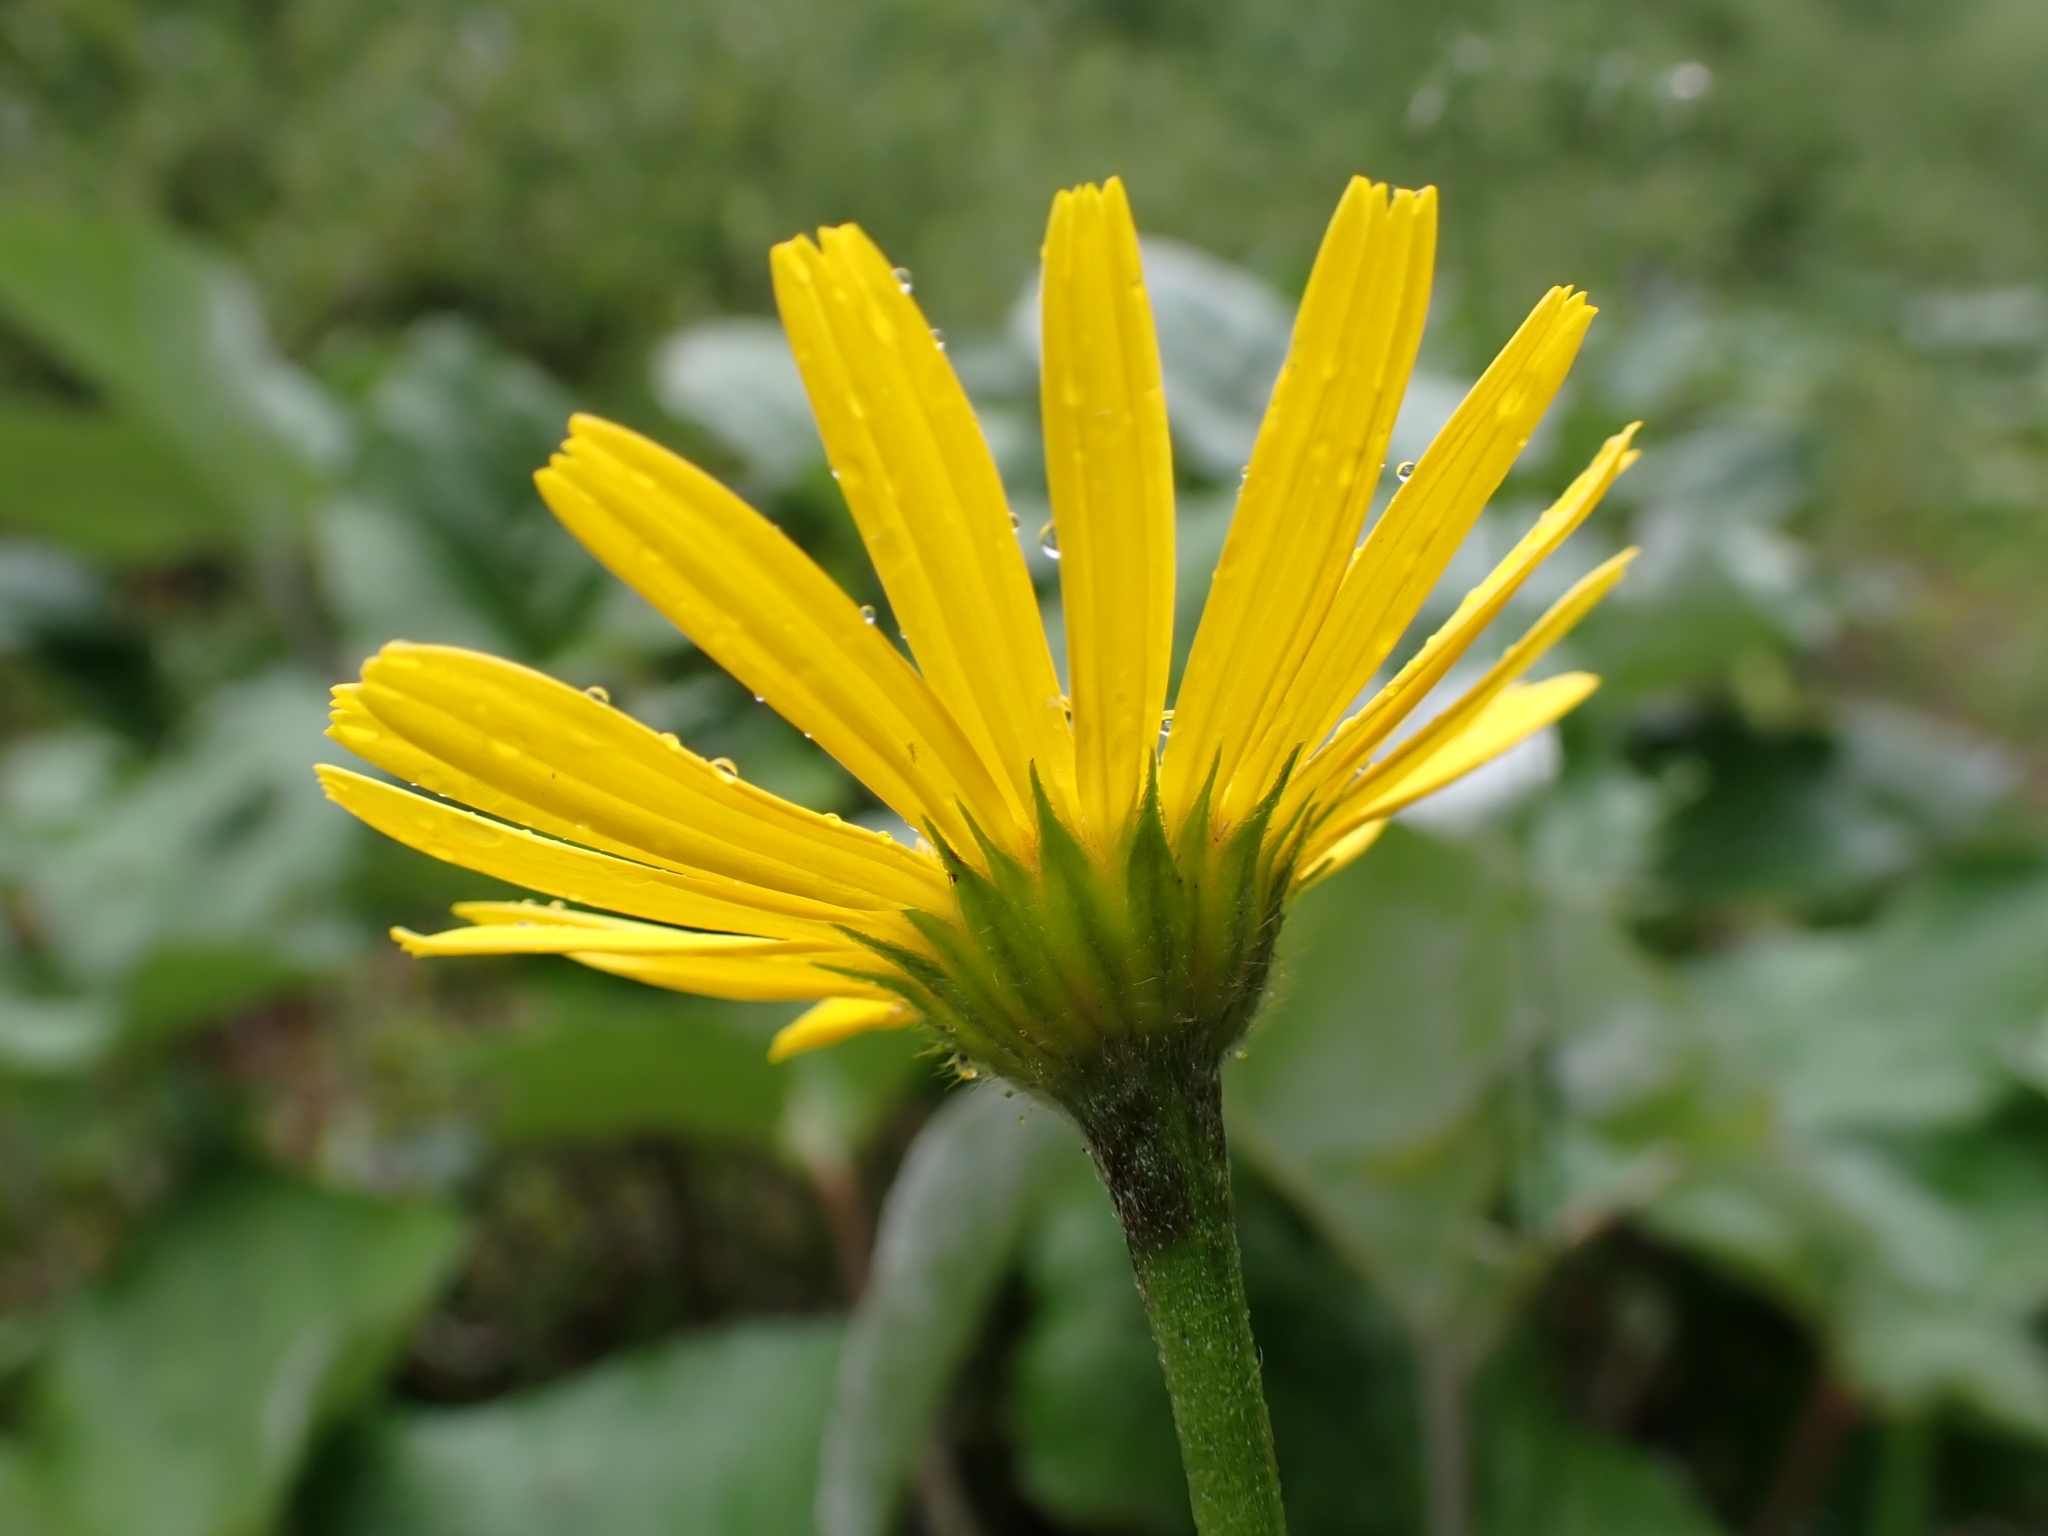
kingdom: Plantae
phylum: Tracheophyta
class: Magnoliopsida
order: Asterales
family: Asteraceae
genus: Buphthalmum
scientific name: Buphthalmum salicifolium
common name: Willow-leaved yellow-oxeye
